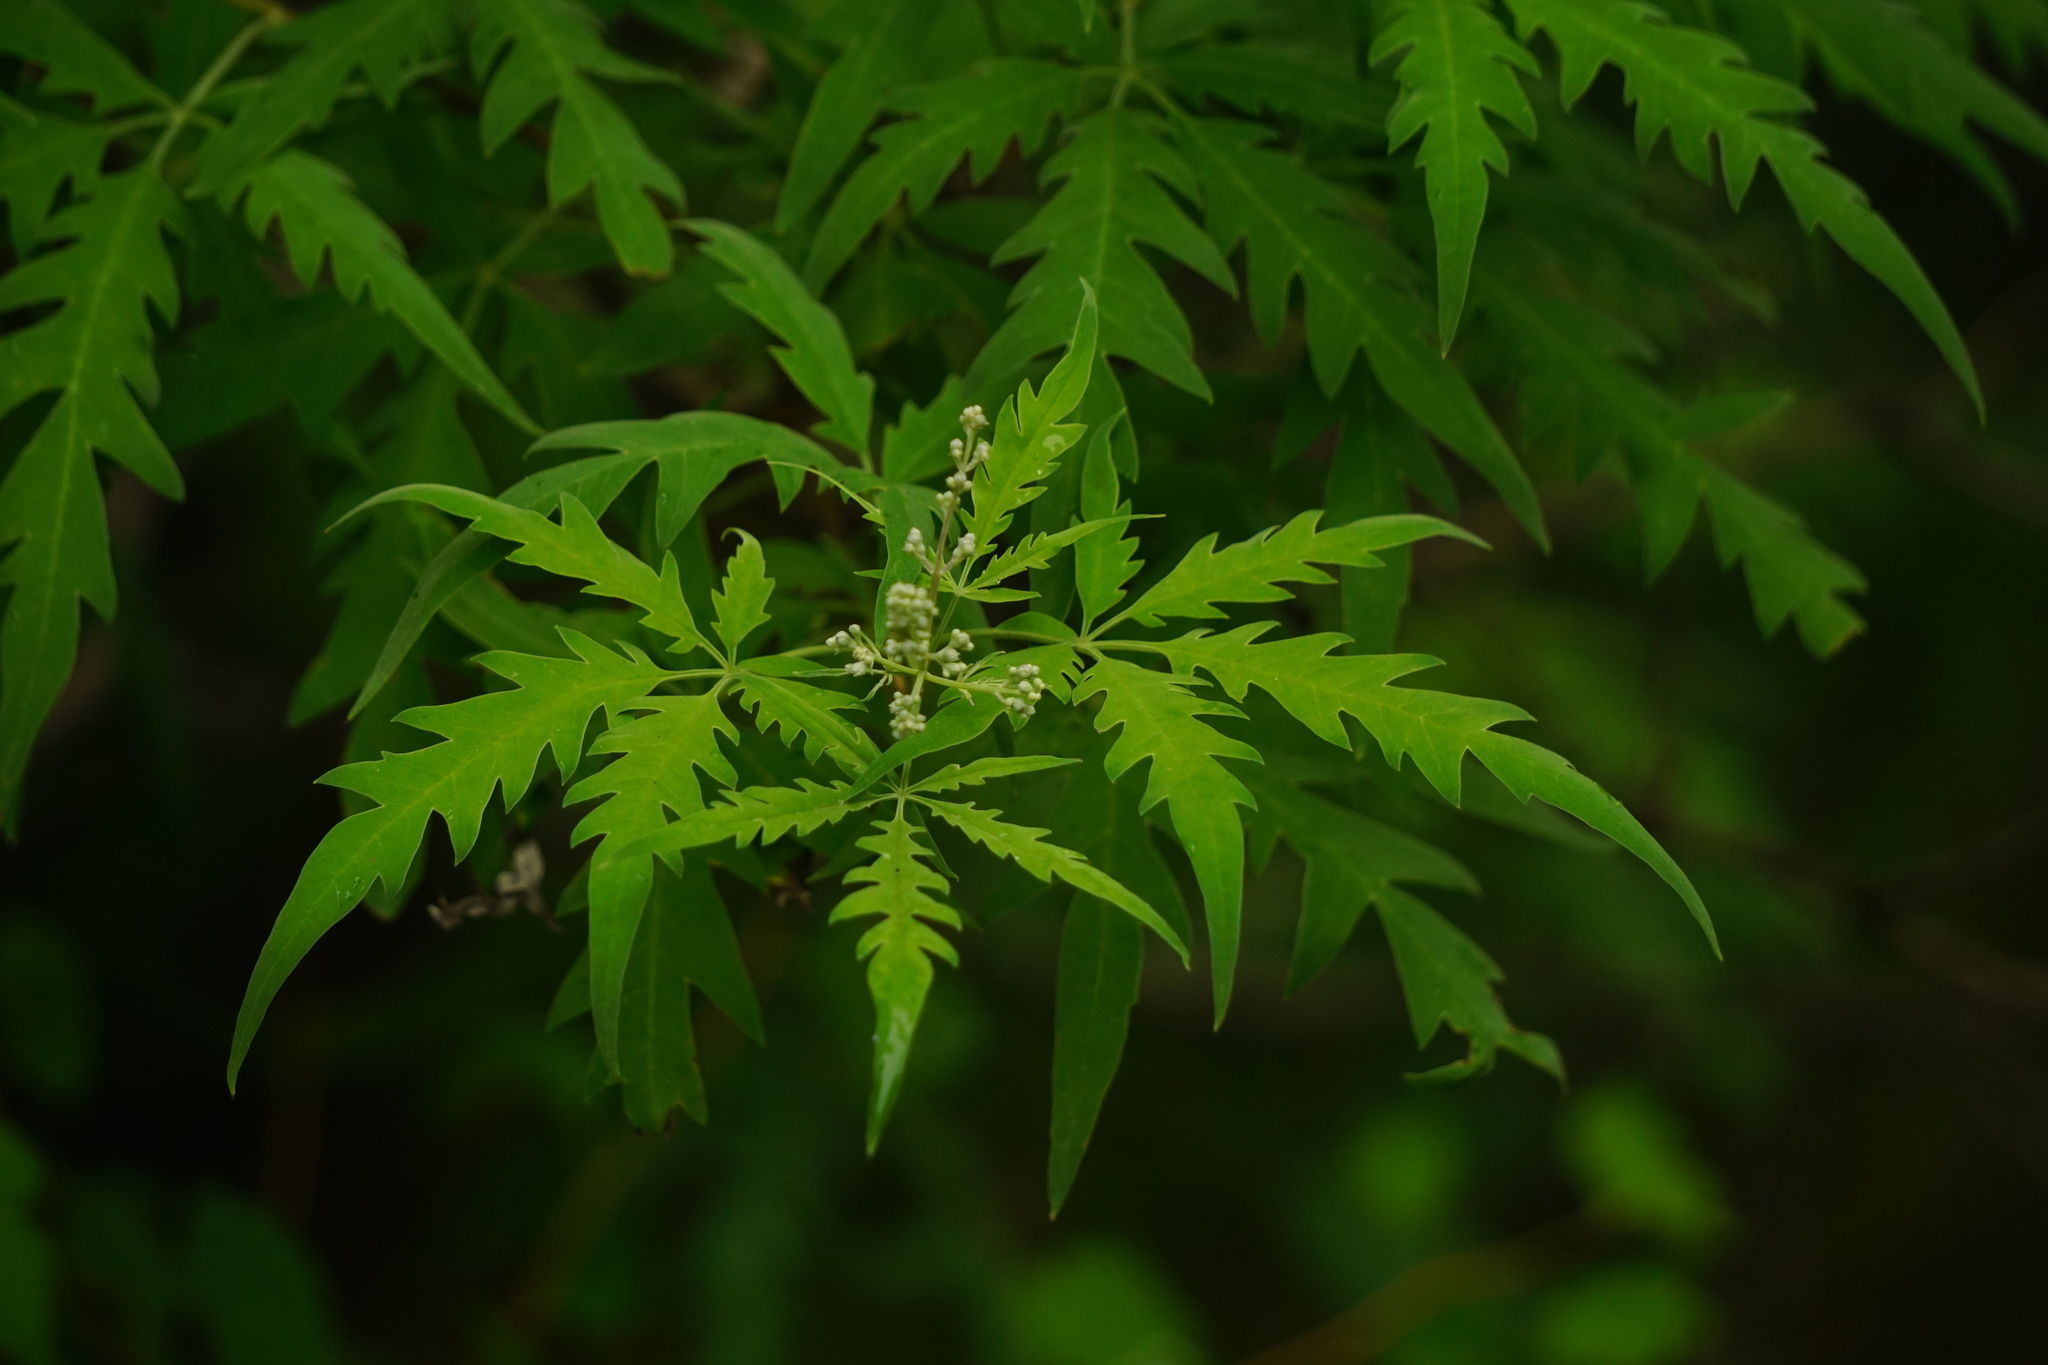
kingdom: Plantae
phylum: Tracheophyta
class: Magnoliopsida
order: Lamiales
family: Lamiaceae
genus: Vitex
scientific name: Vitex negundo
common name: Chinese chastetree
